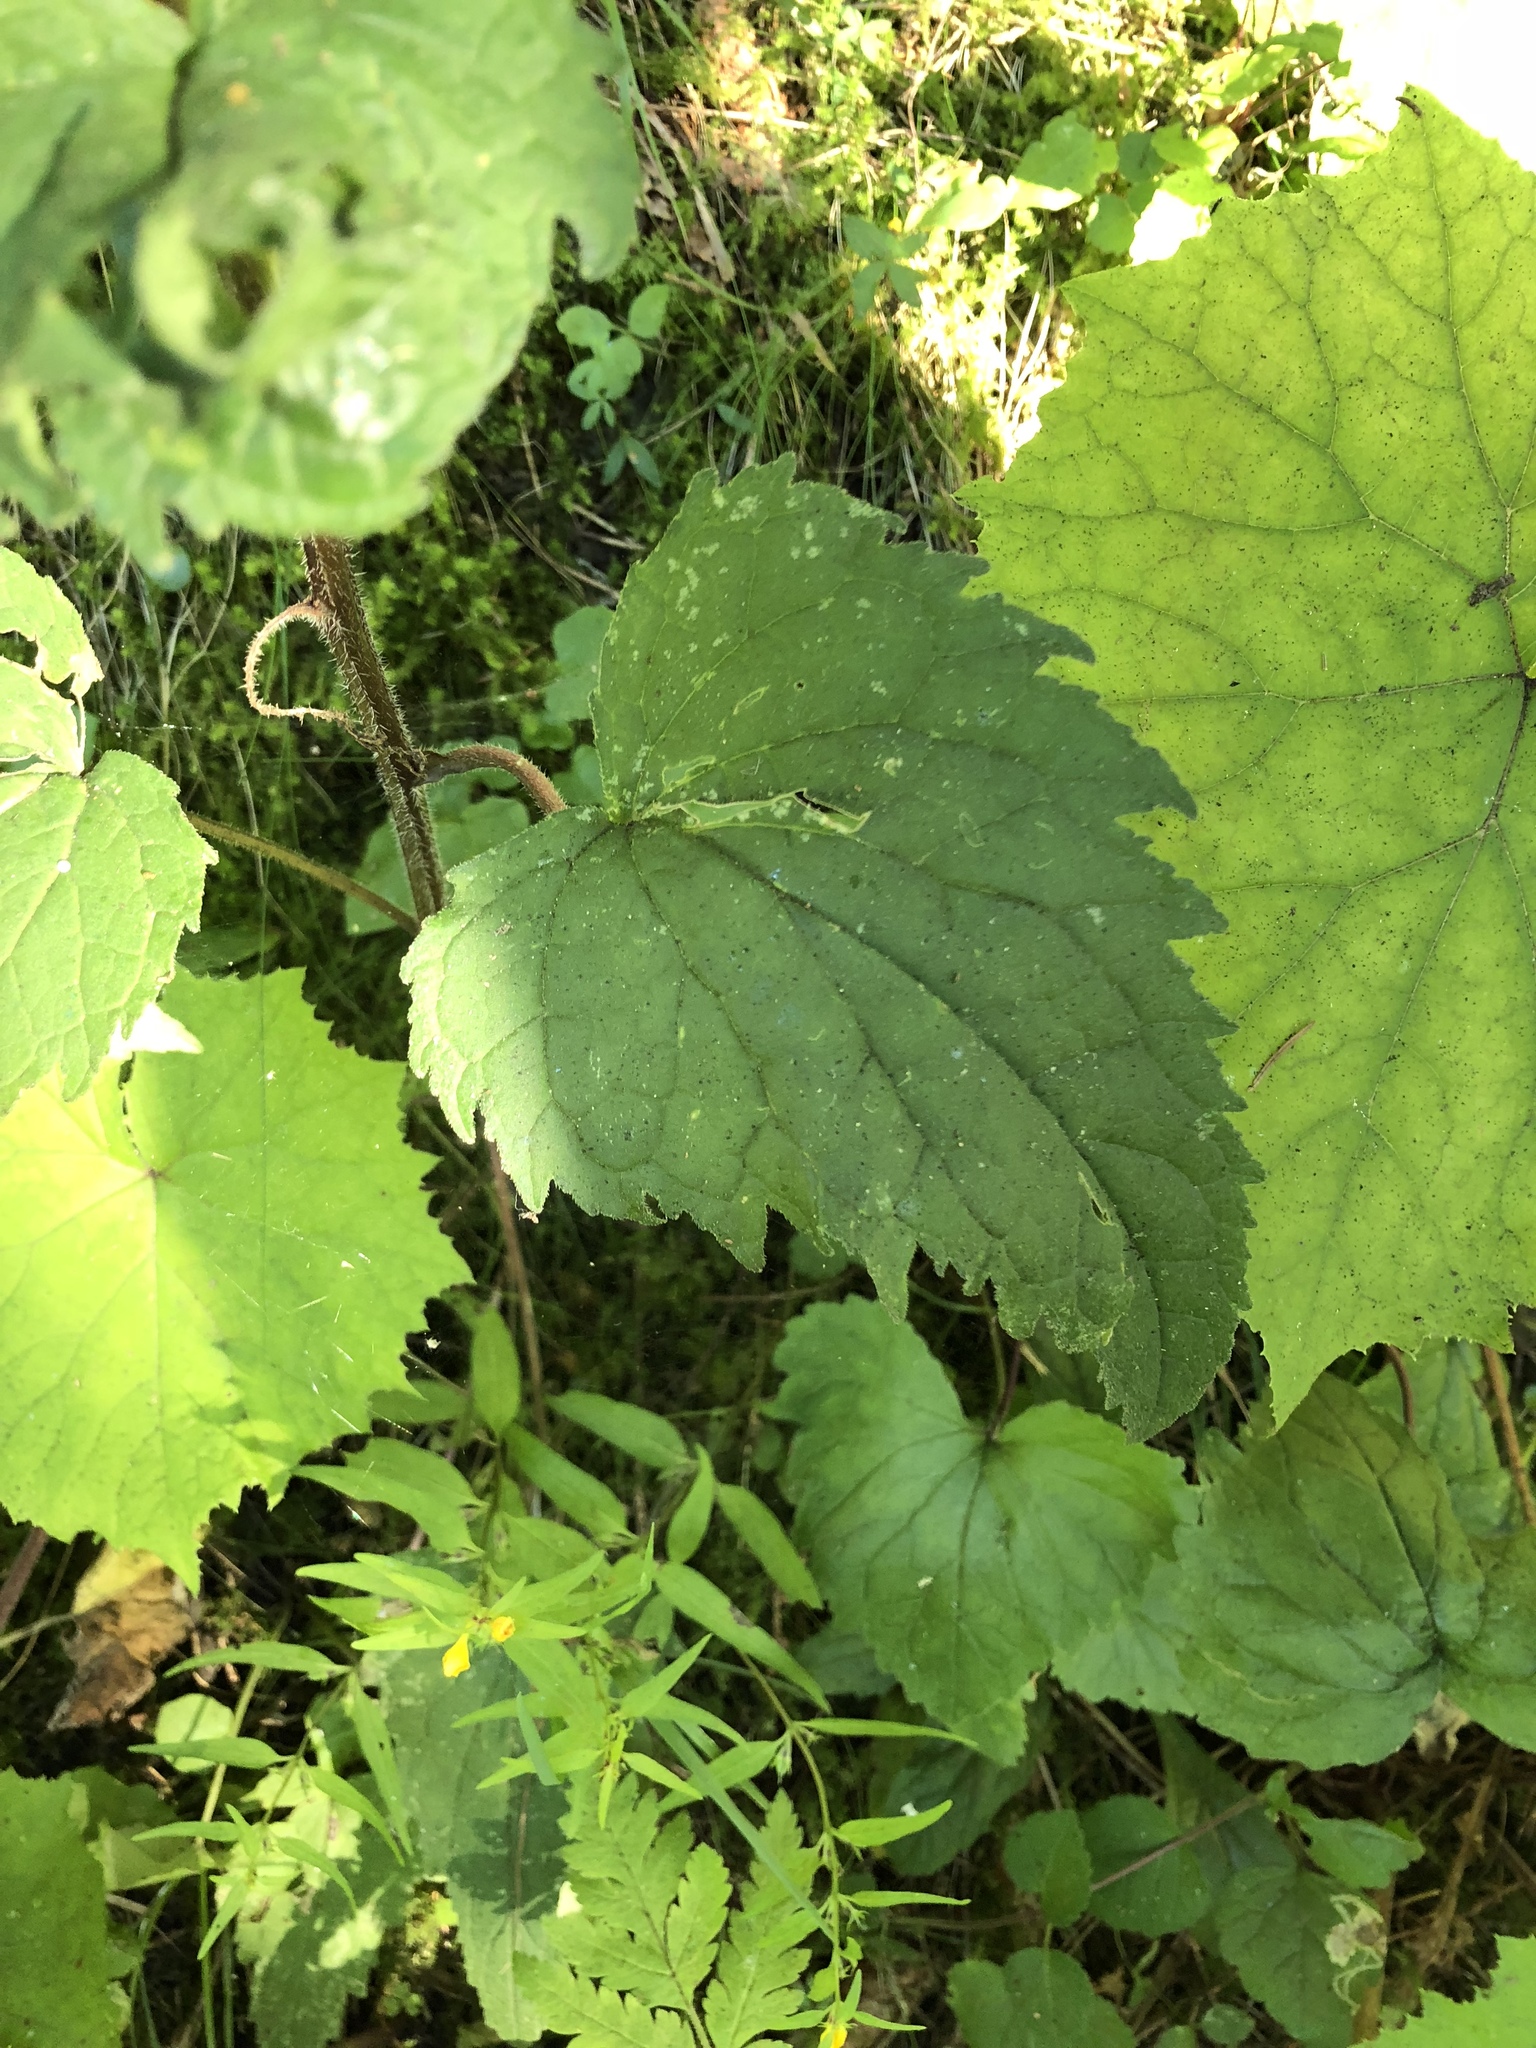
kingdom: Plantae
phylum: Tracheophyta
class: Magnoliopsida
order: Asterales
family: Campanulaceae
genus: Campanula
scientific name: Campanula trachelium
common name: Nettle-leaved bellflower
